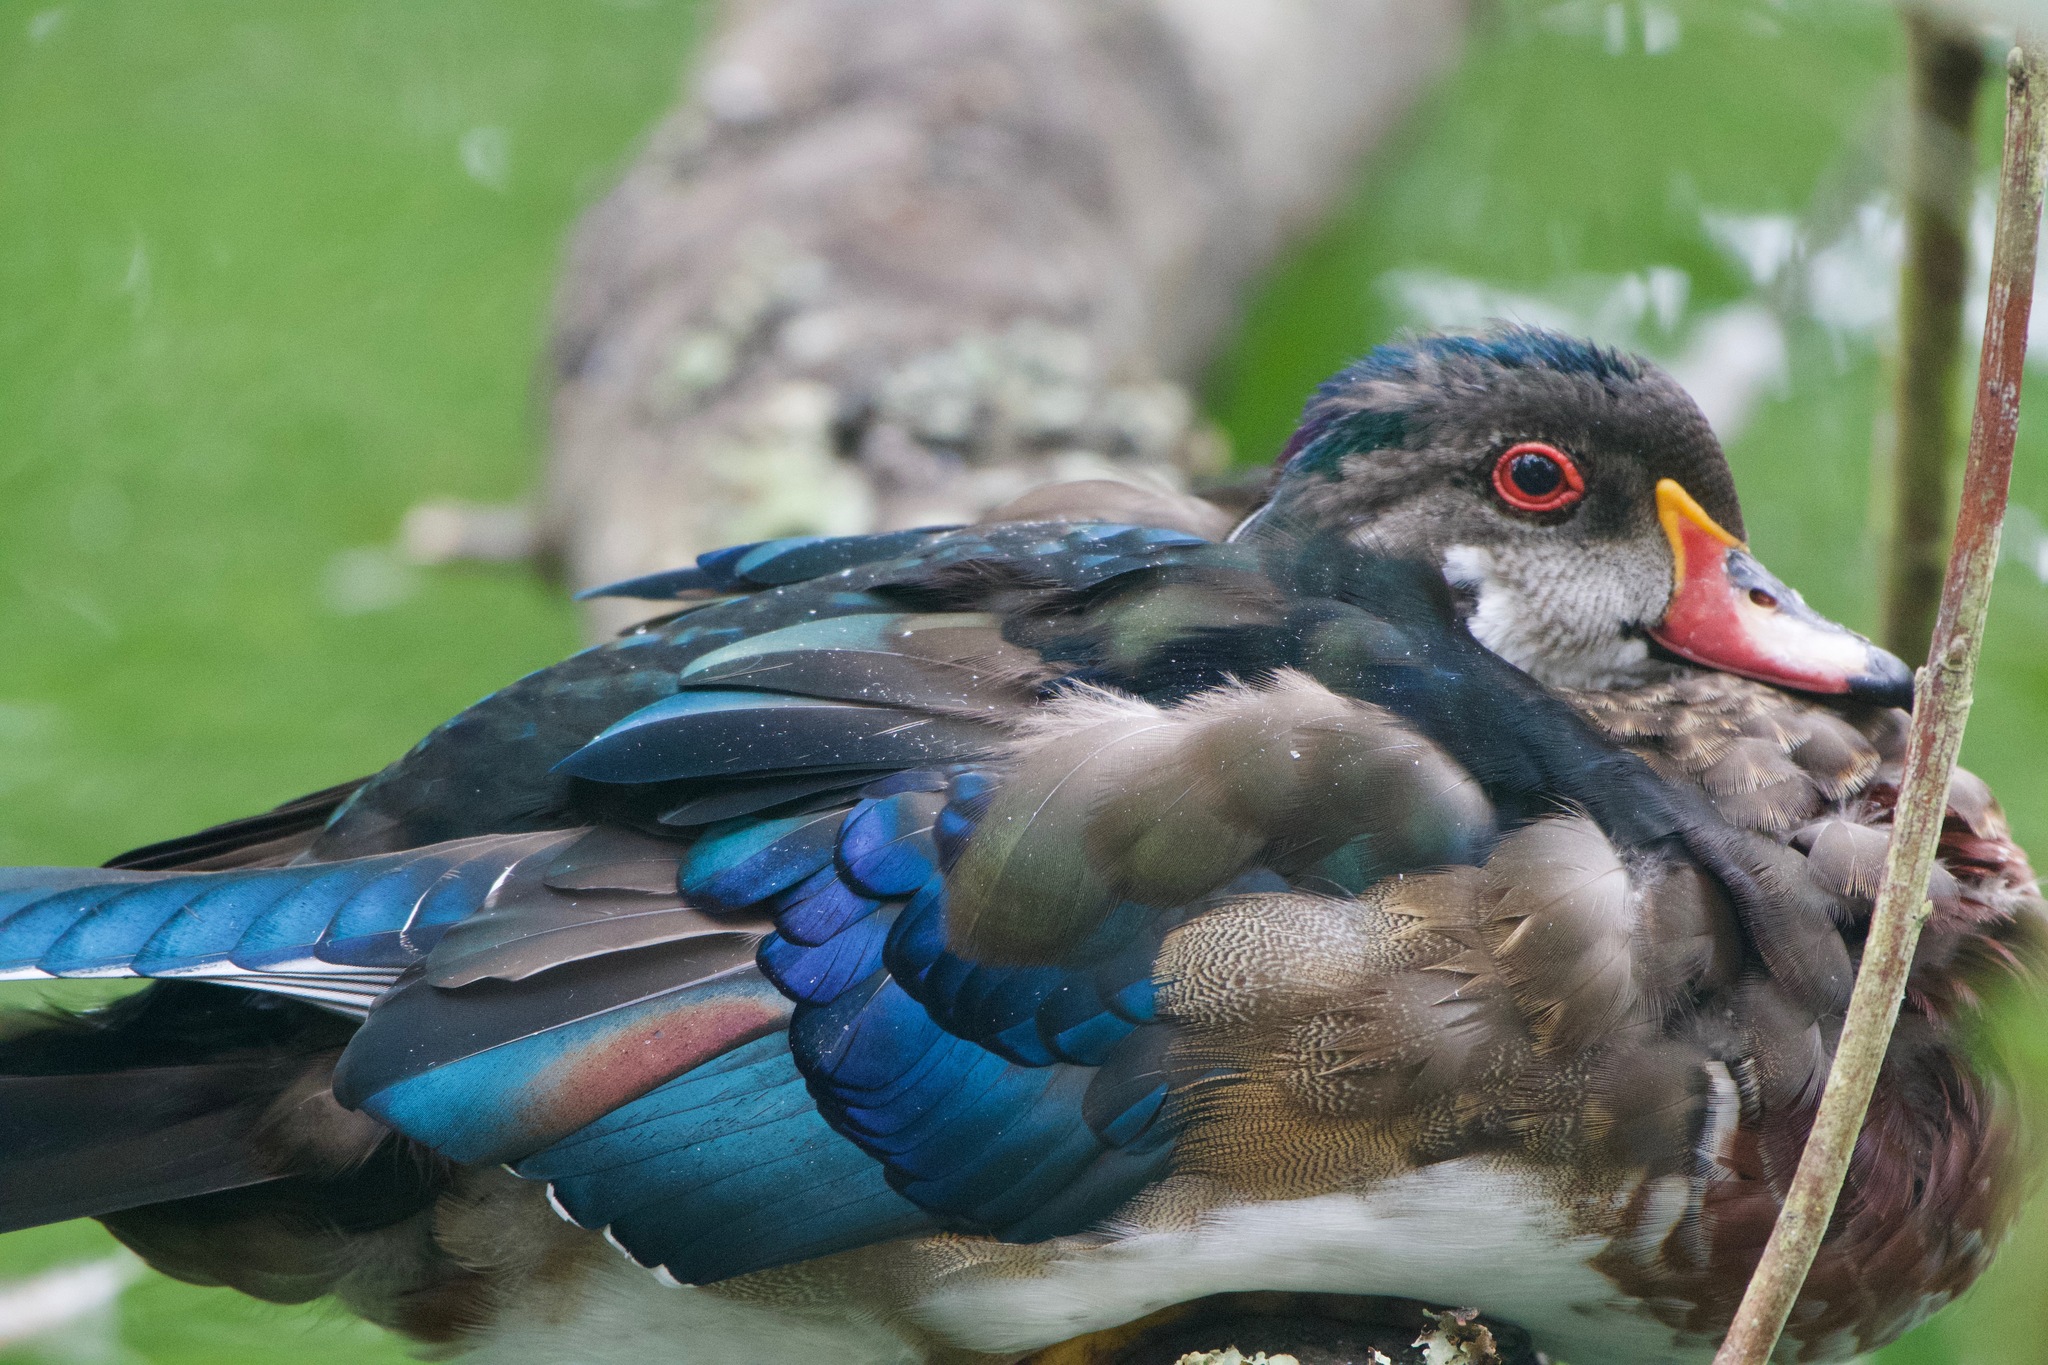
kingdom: Animalia
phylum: Chordata
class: Aves
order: Anseriformes
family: Anatidae
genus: Aix
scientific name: Aix sponsa
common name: Wood duck
